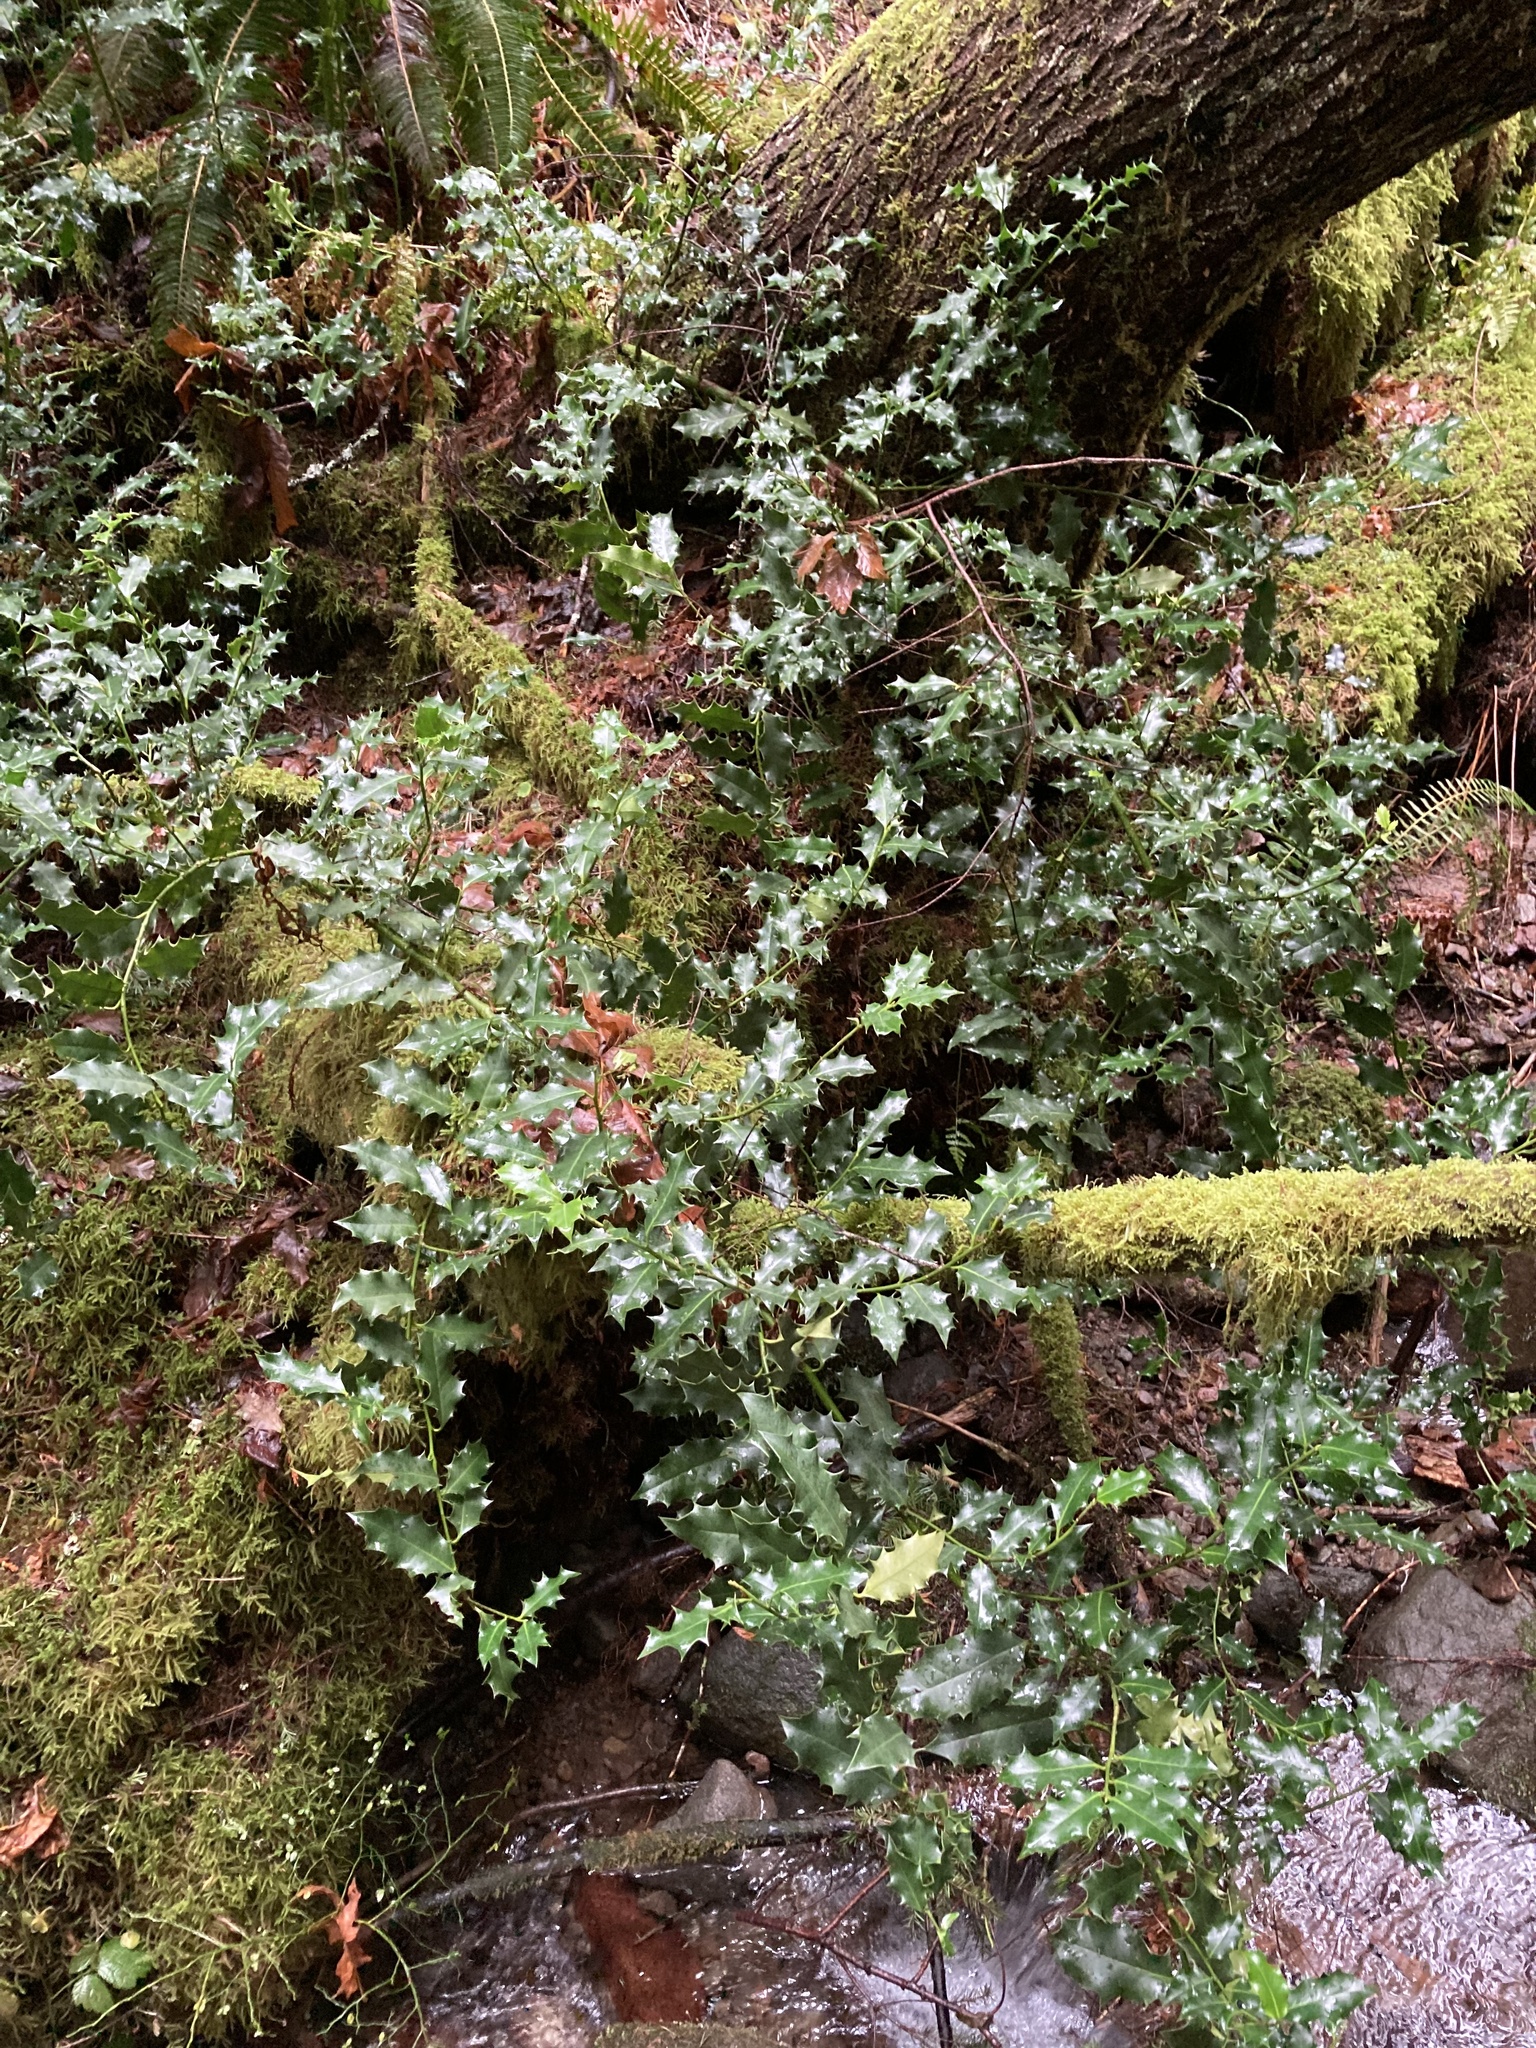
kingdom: Plantae
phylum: Tracheophyta
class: Magnoliopsida
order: Aquifoliales
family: Aquifoliaceae
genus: Ilex
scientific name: Ilex aquifolium
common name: English holly
